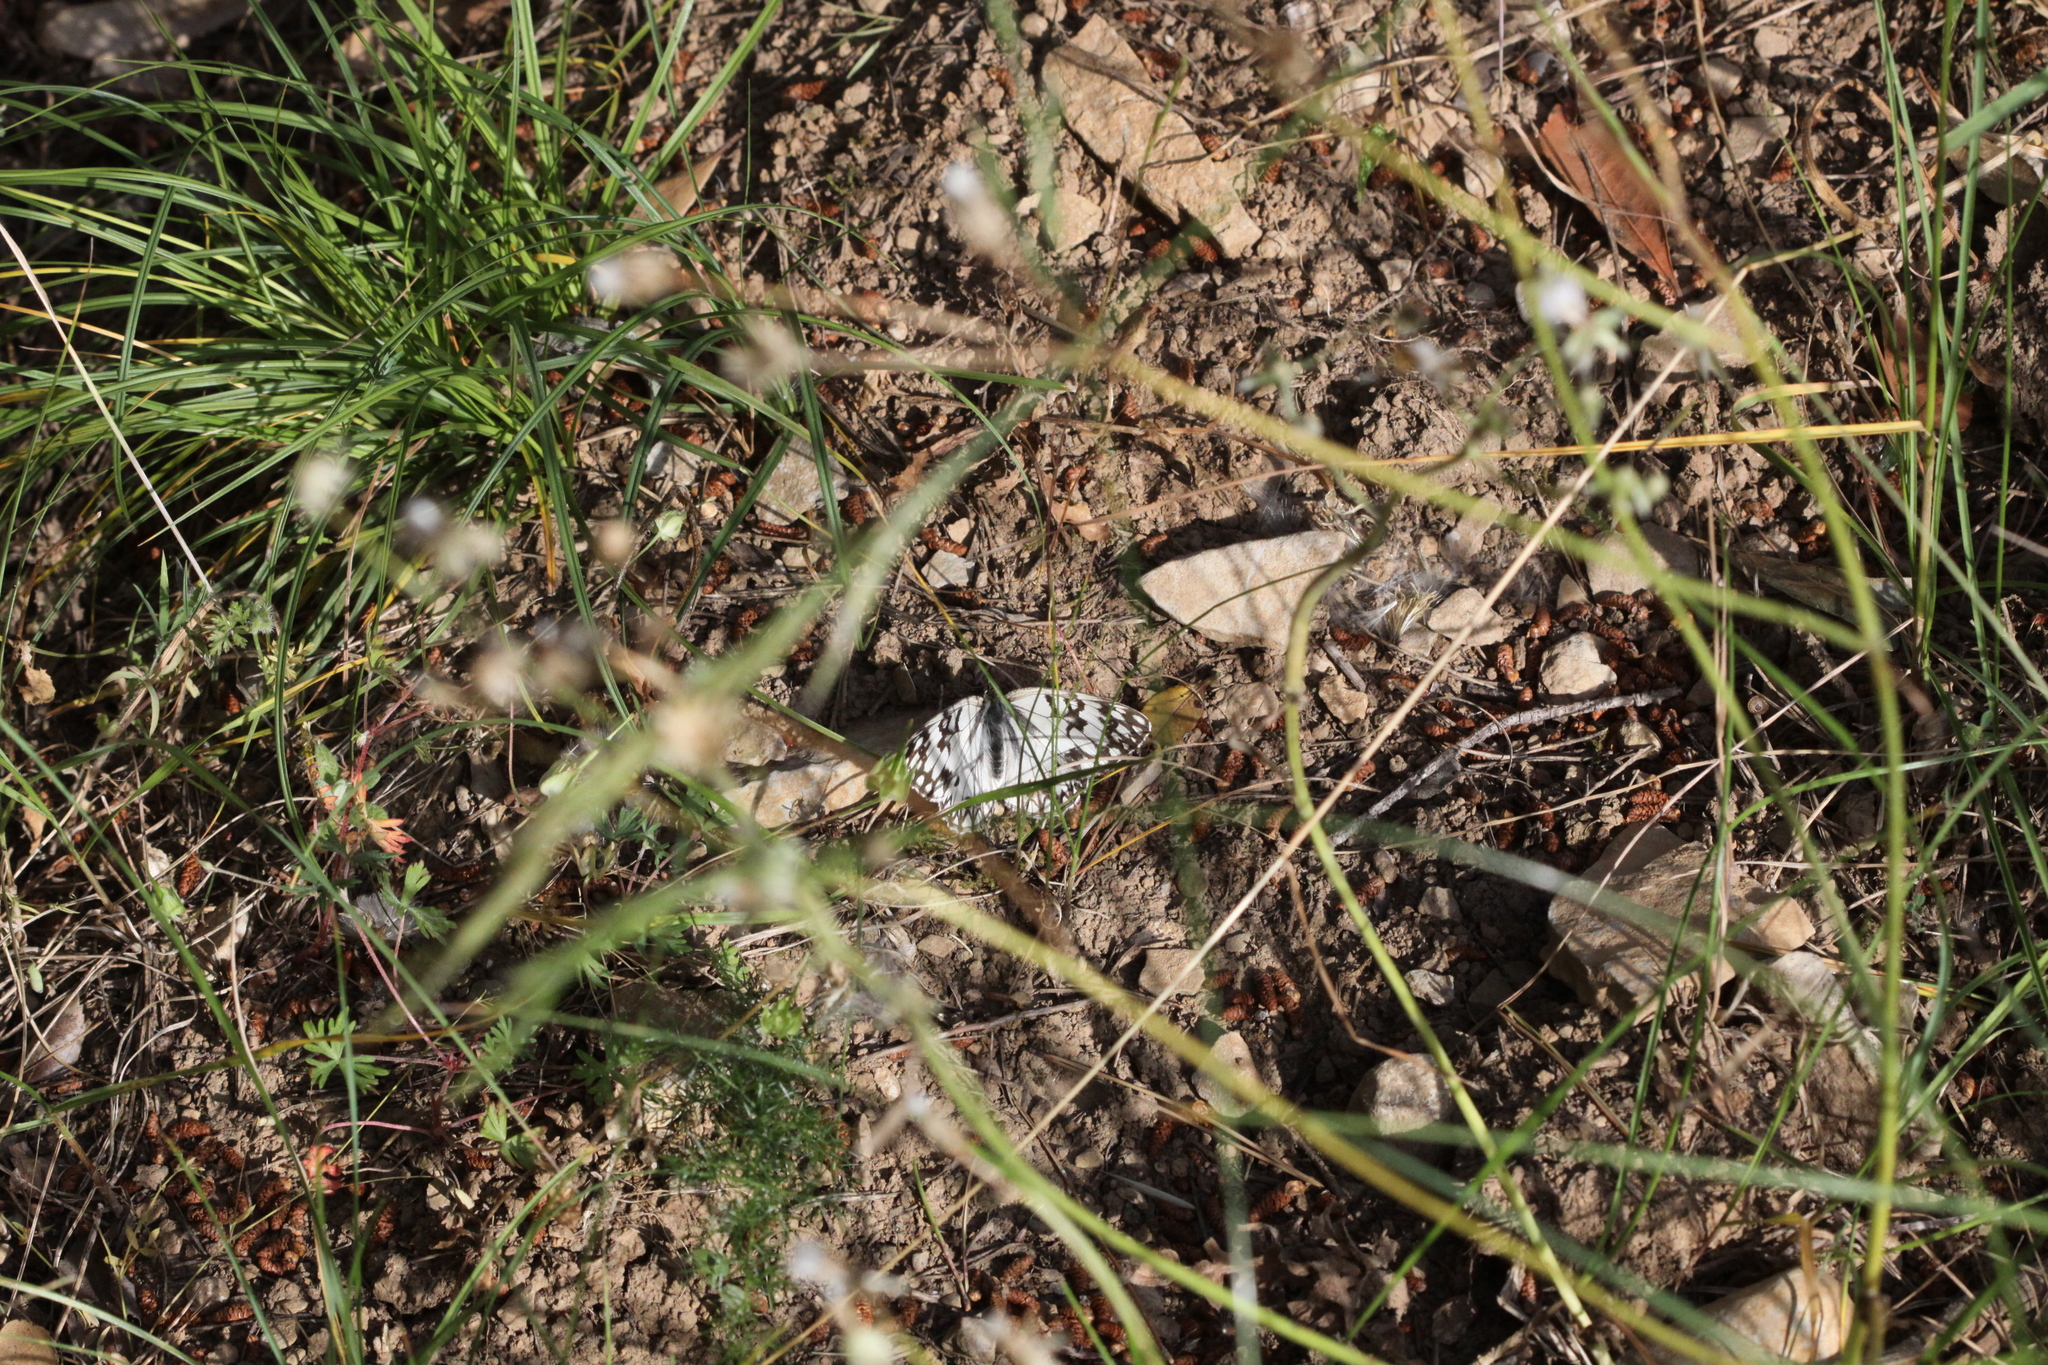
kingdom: Animalia
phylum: Arthropoda
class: Insecta
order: Lepidoptera
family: Nymphalidae
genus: Melanargia
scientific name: Melanargia occitanica
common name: Western marbled white
